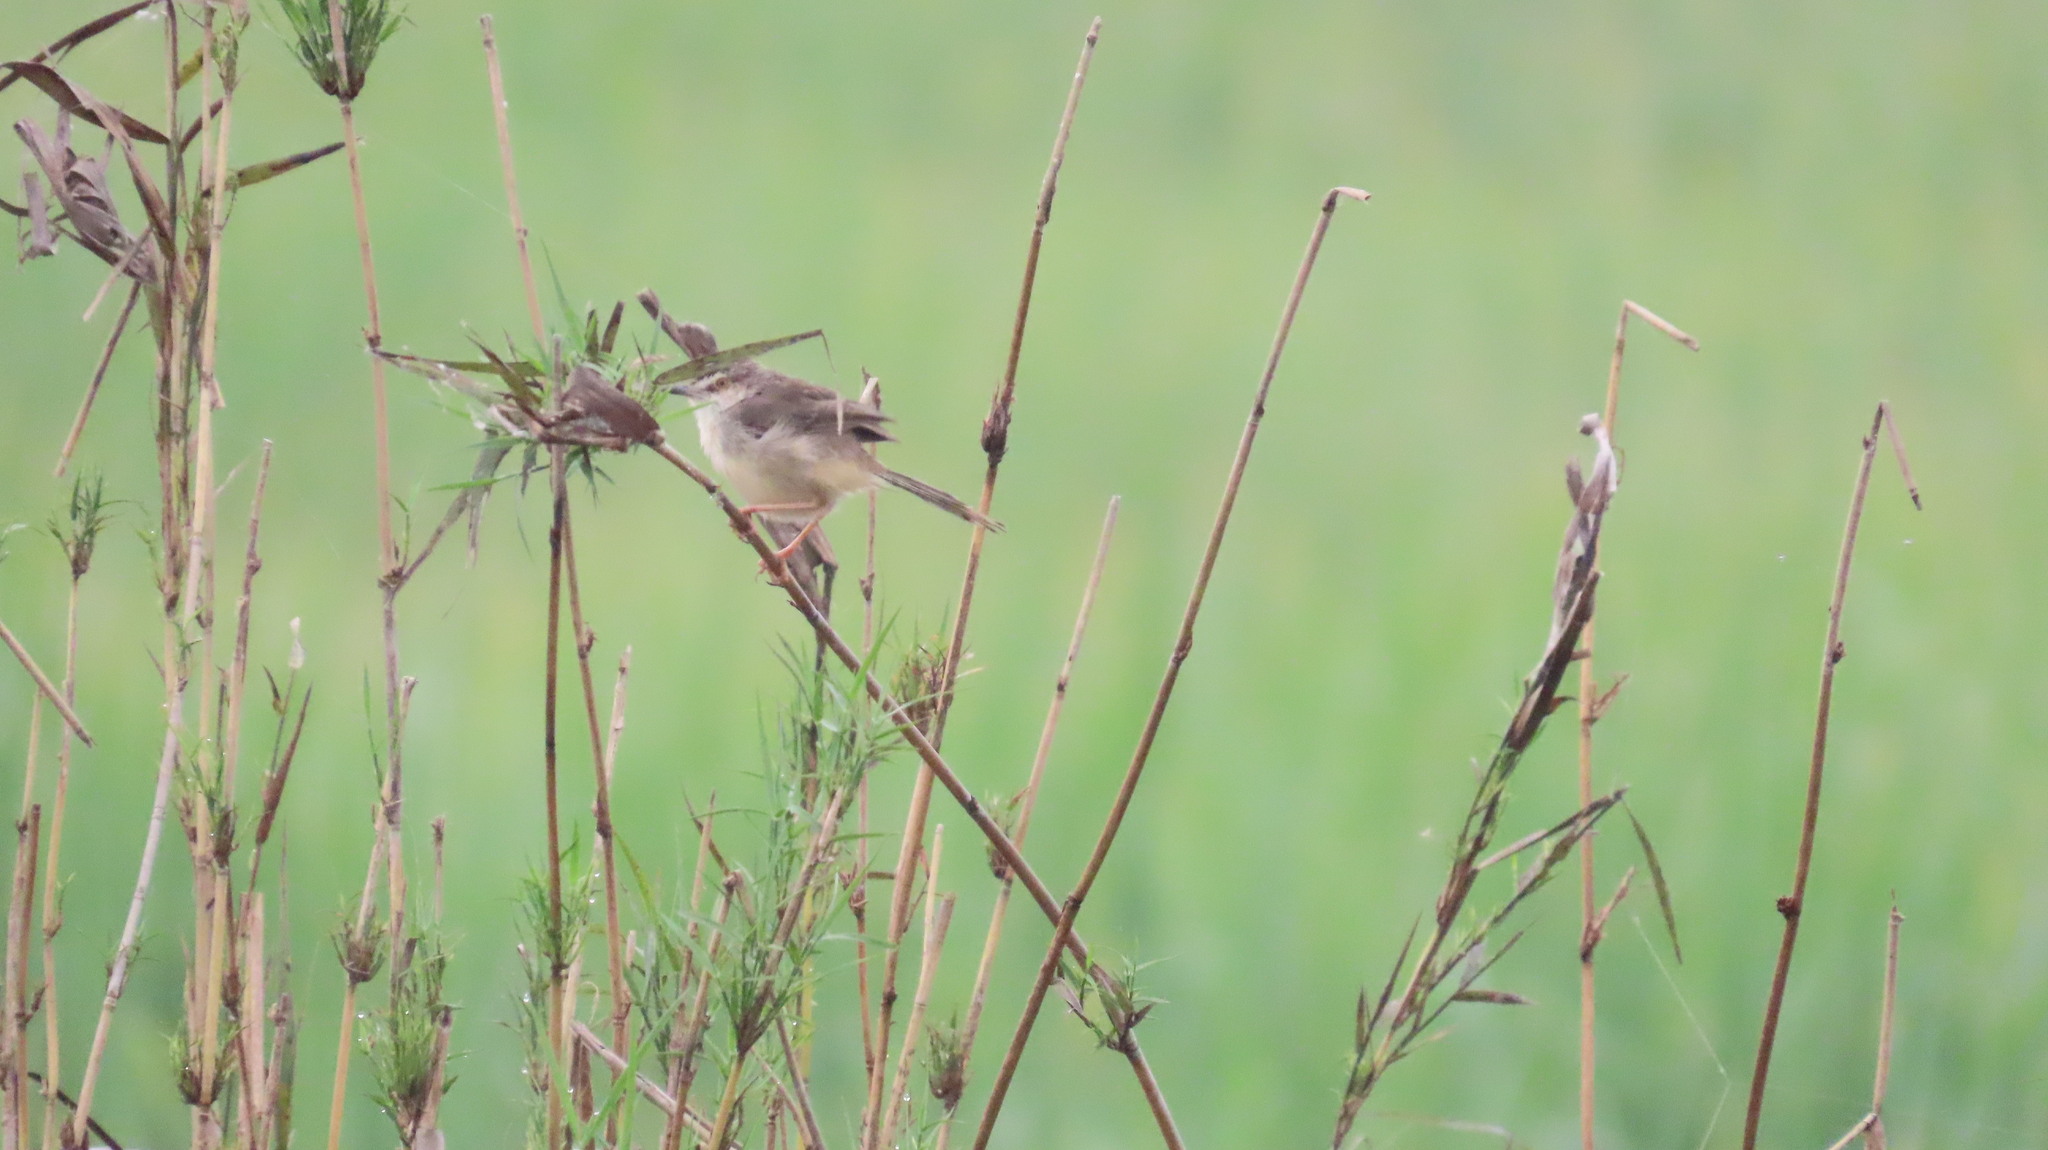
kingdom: Animalia
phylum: Chordata
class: Aves
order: Passeriformes
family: Cisticolidae
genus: Prinia
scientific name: Prinia inornata
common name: Plain prinia
